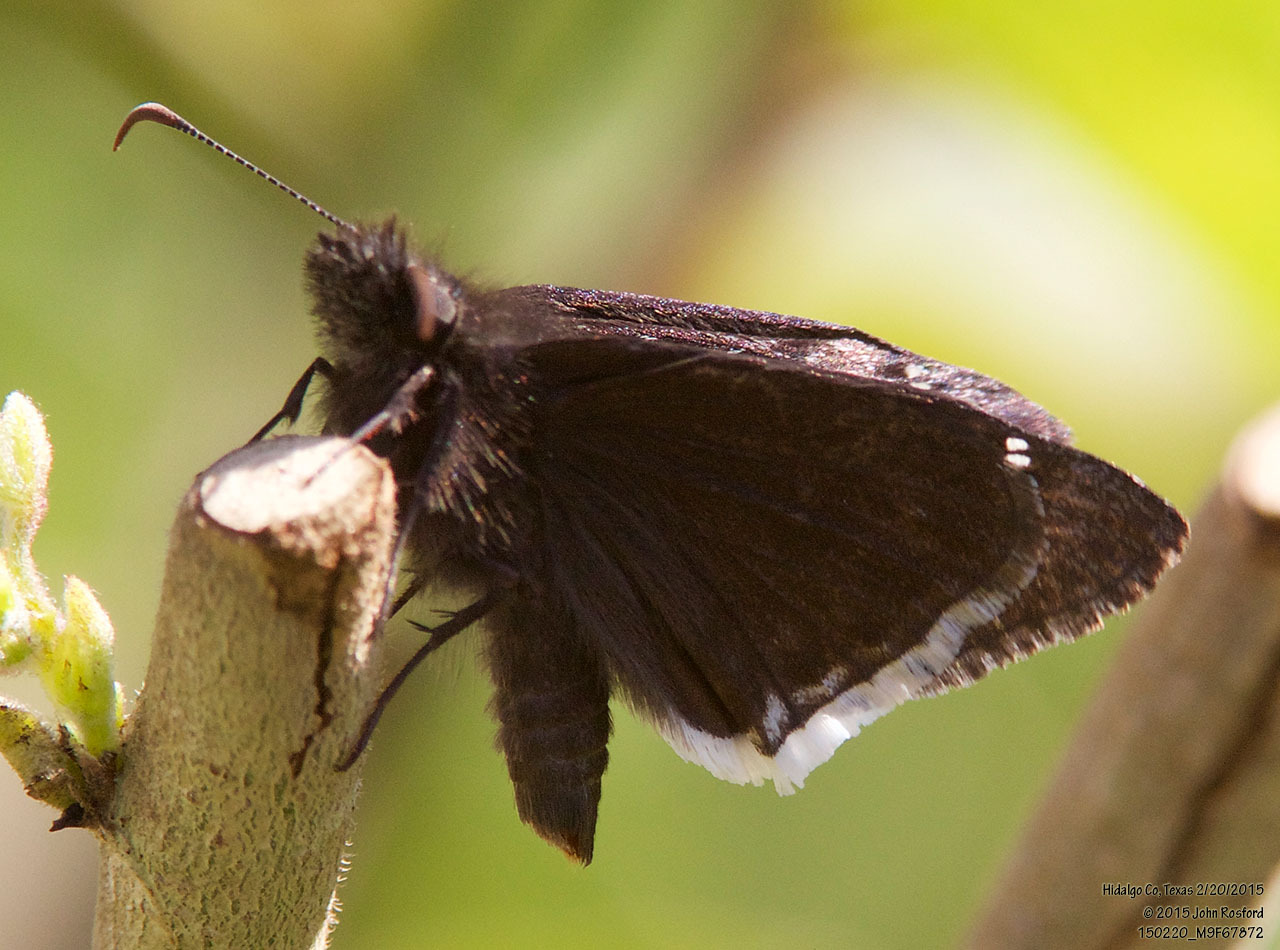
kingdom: Animalia
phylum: Arthropoda
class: Insecta
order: Lepidoptera
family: Hesperiidae
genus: Erynnis
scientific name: Erynnis tristis
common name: Mournful duskywing
